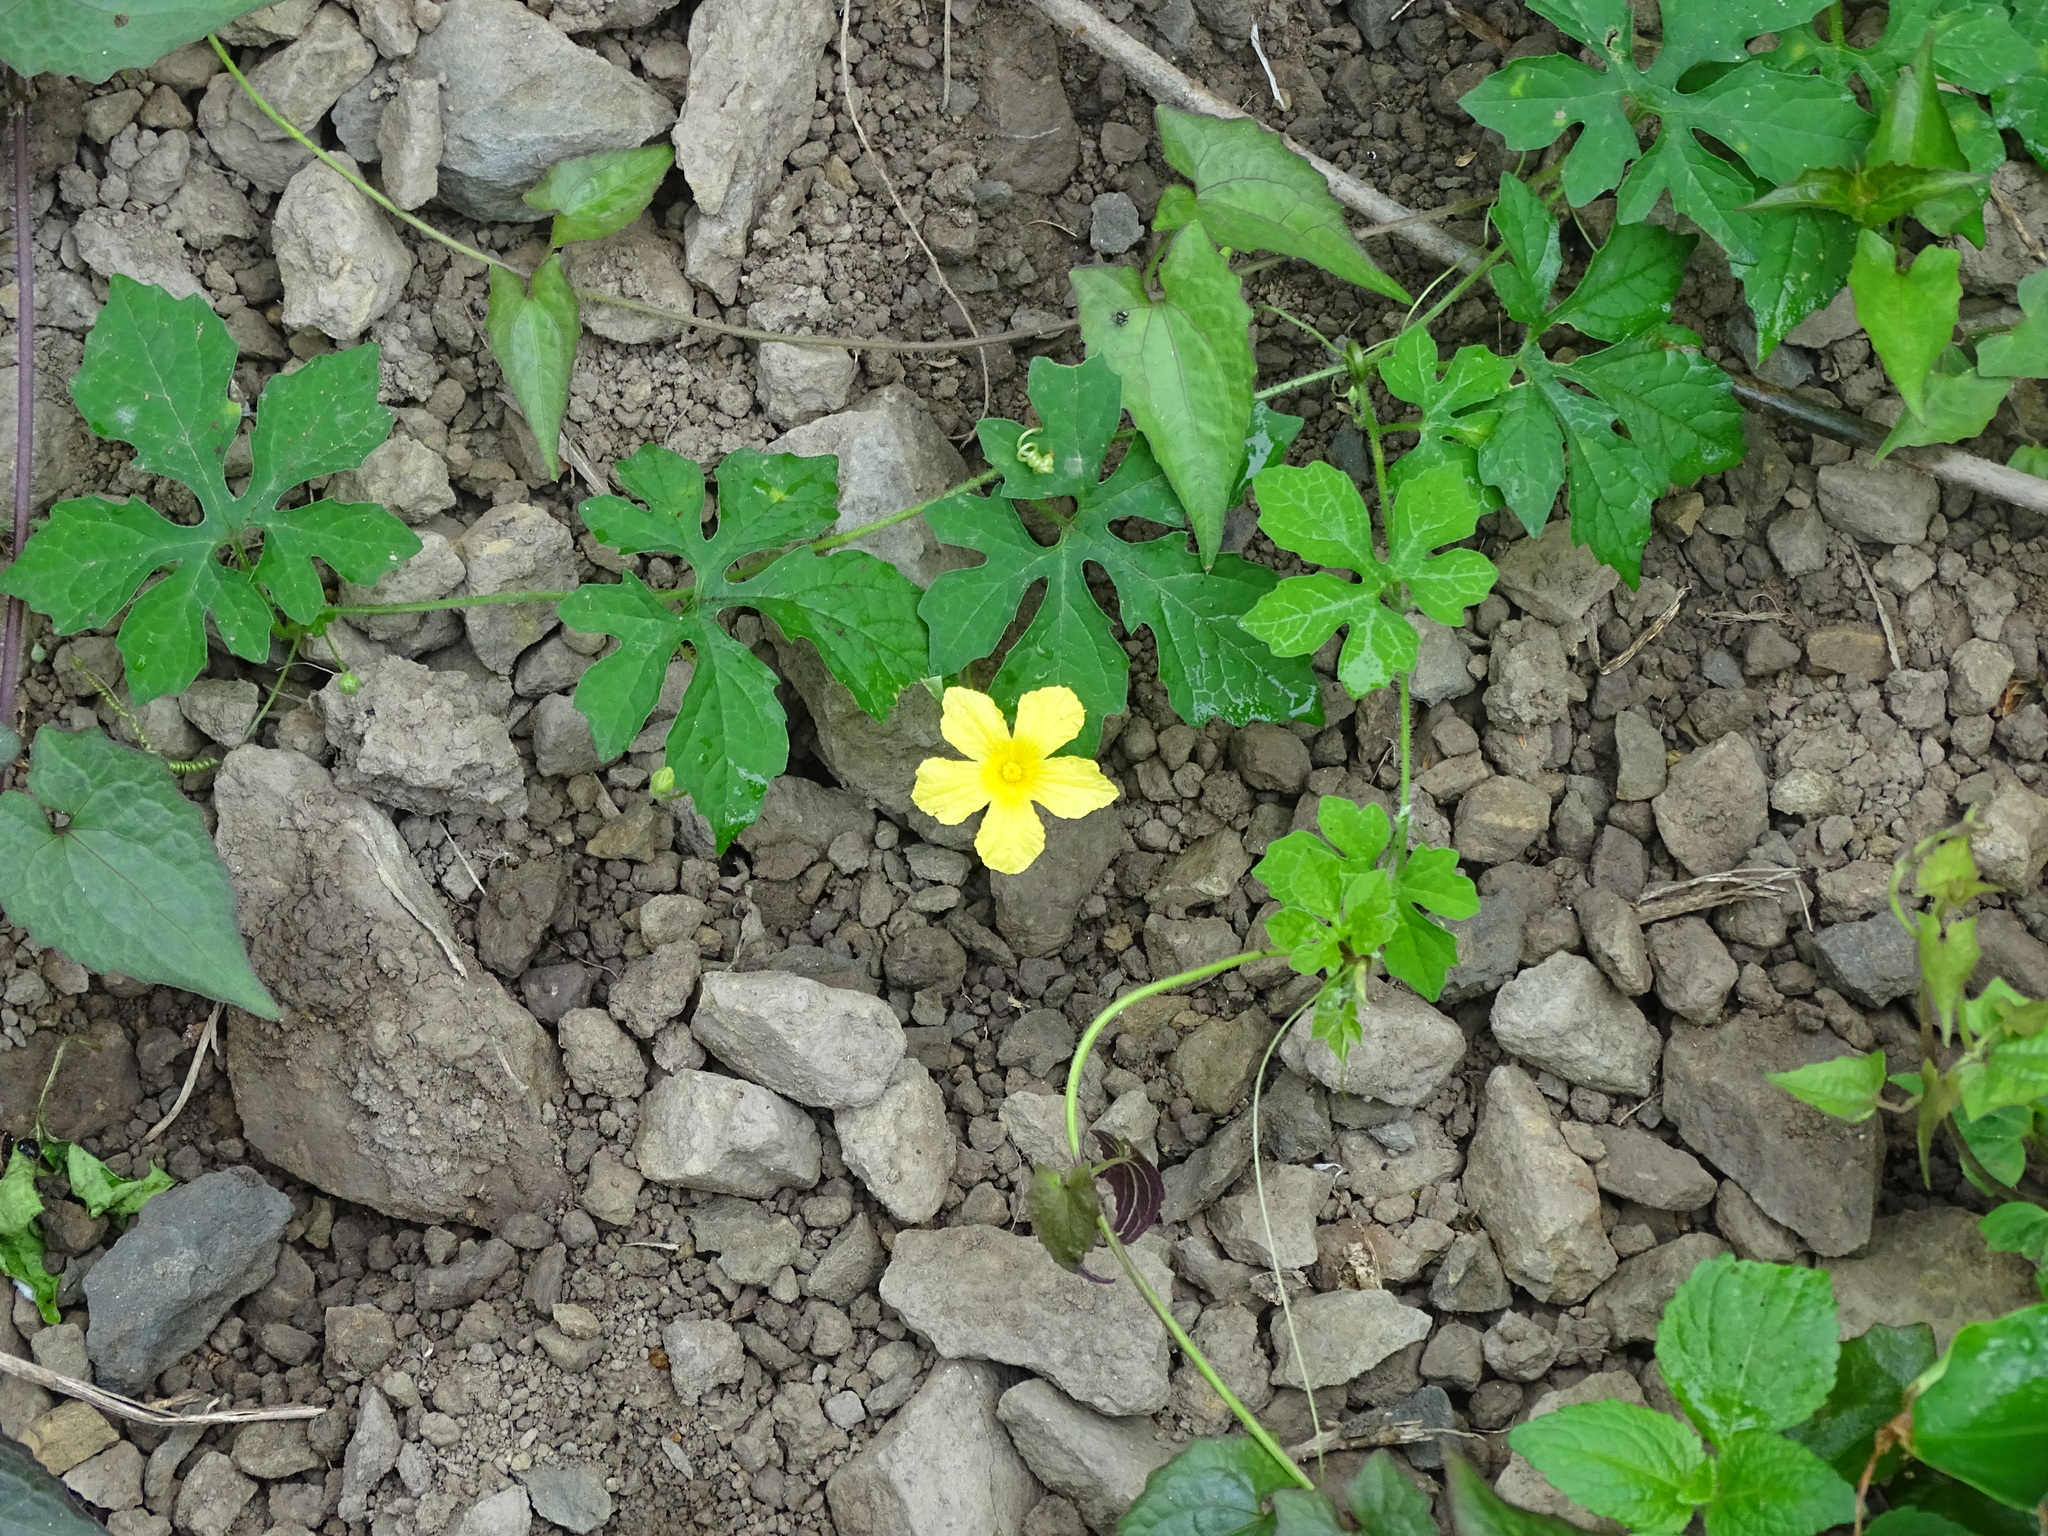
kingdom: Plantae
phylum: Tracheophyta
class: Magnoliopsida
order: Cucurbitales
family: Cucurbitaceae
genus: Momordica
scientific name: Momordica charantia
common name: Balsampear
